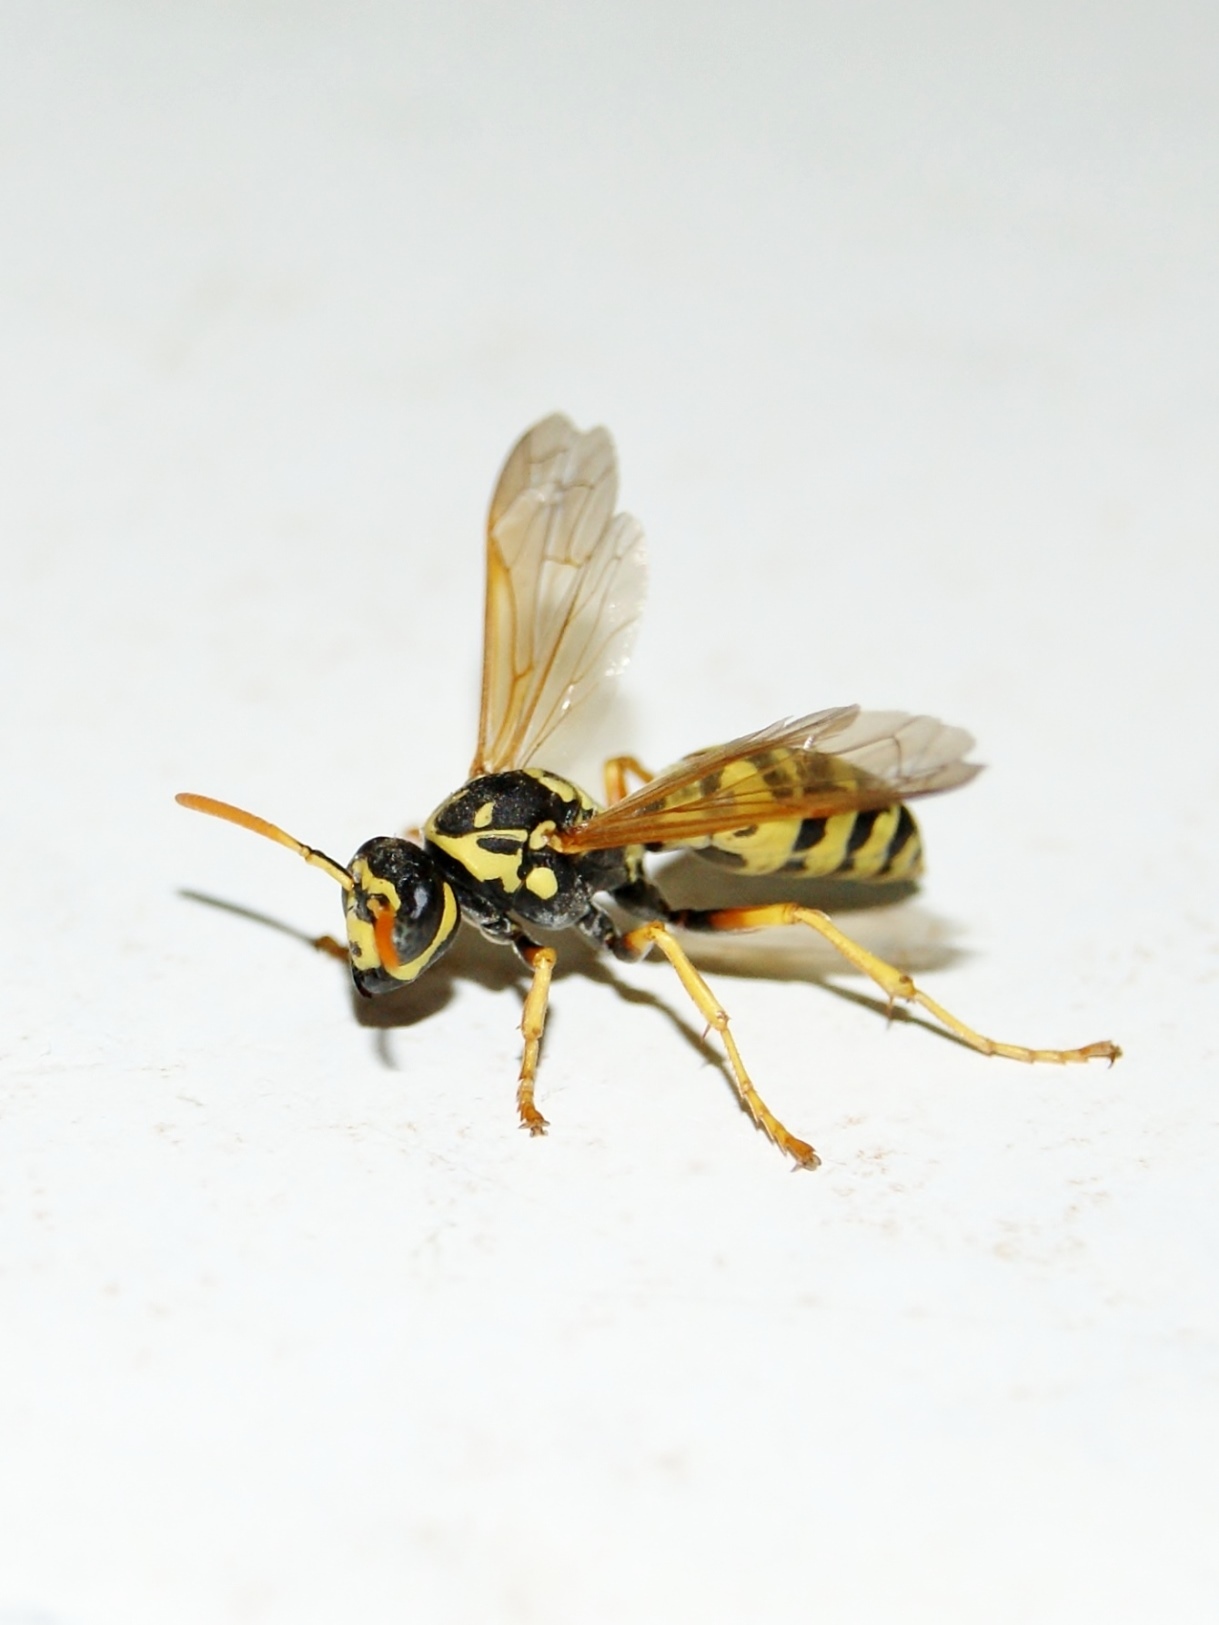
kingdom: Animalia
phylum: Arthropoda
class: Insecta
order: Hymenoptera
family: Eumenidae
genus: Polistes
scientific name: Polistes dominula
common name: Paper wasp
